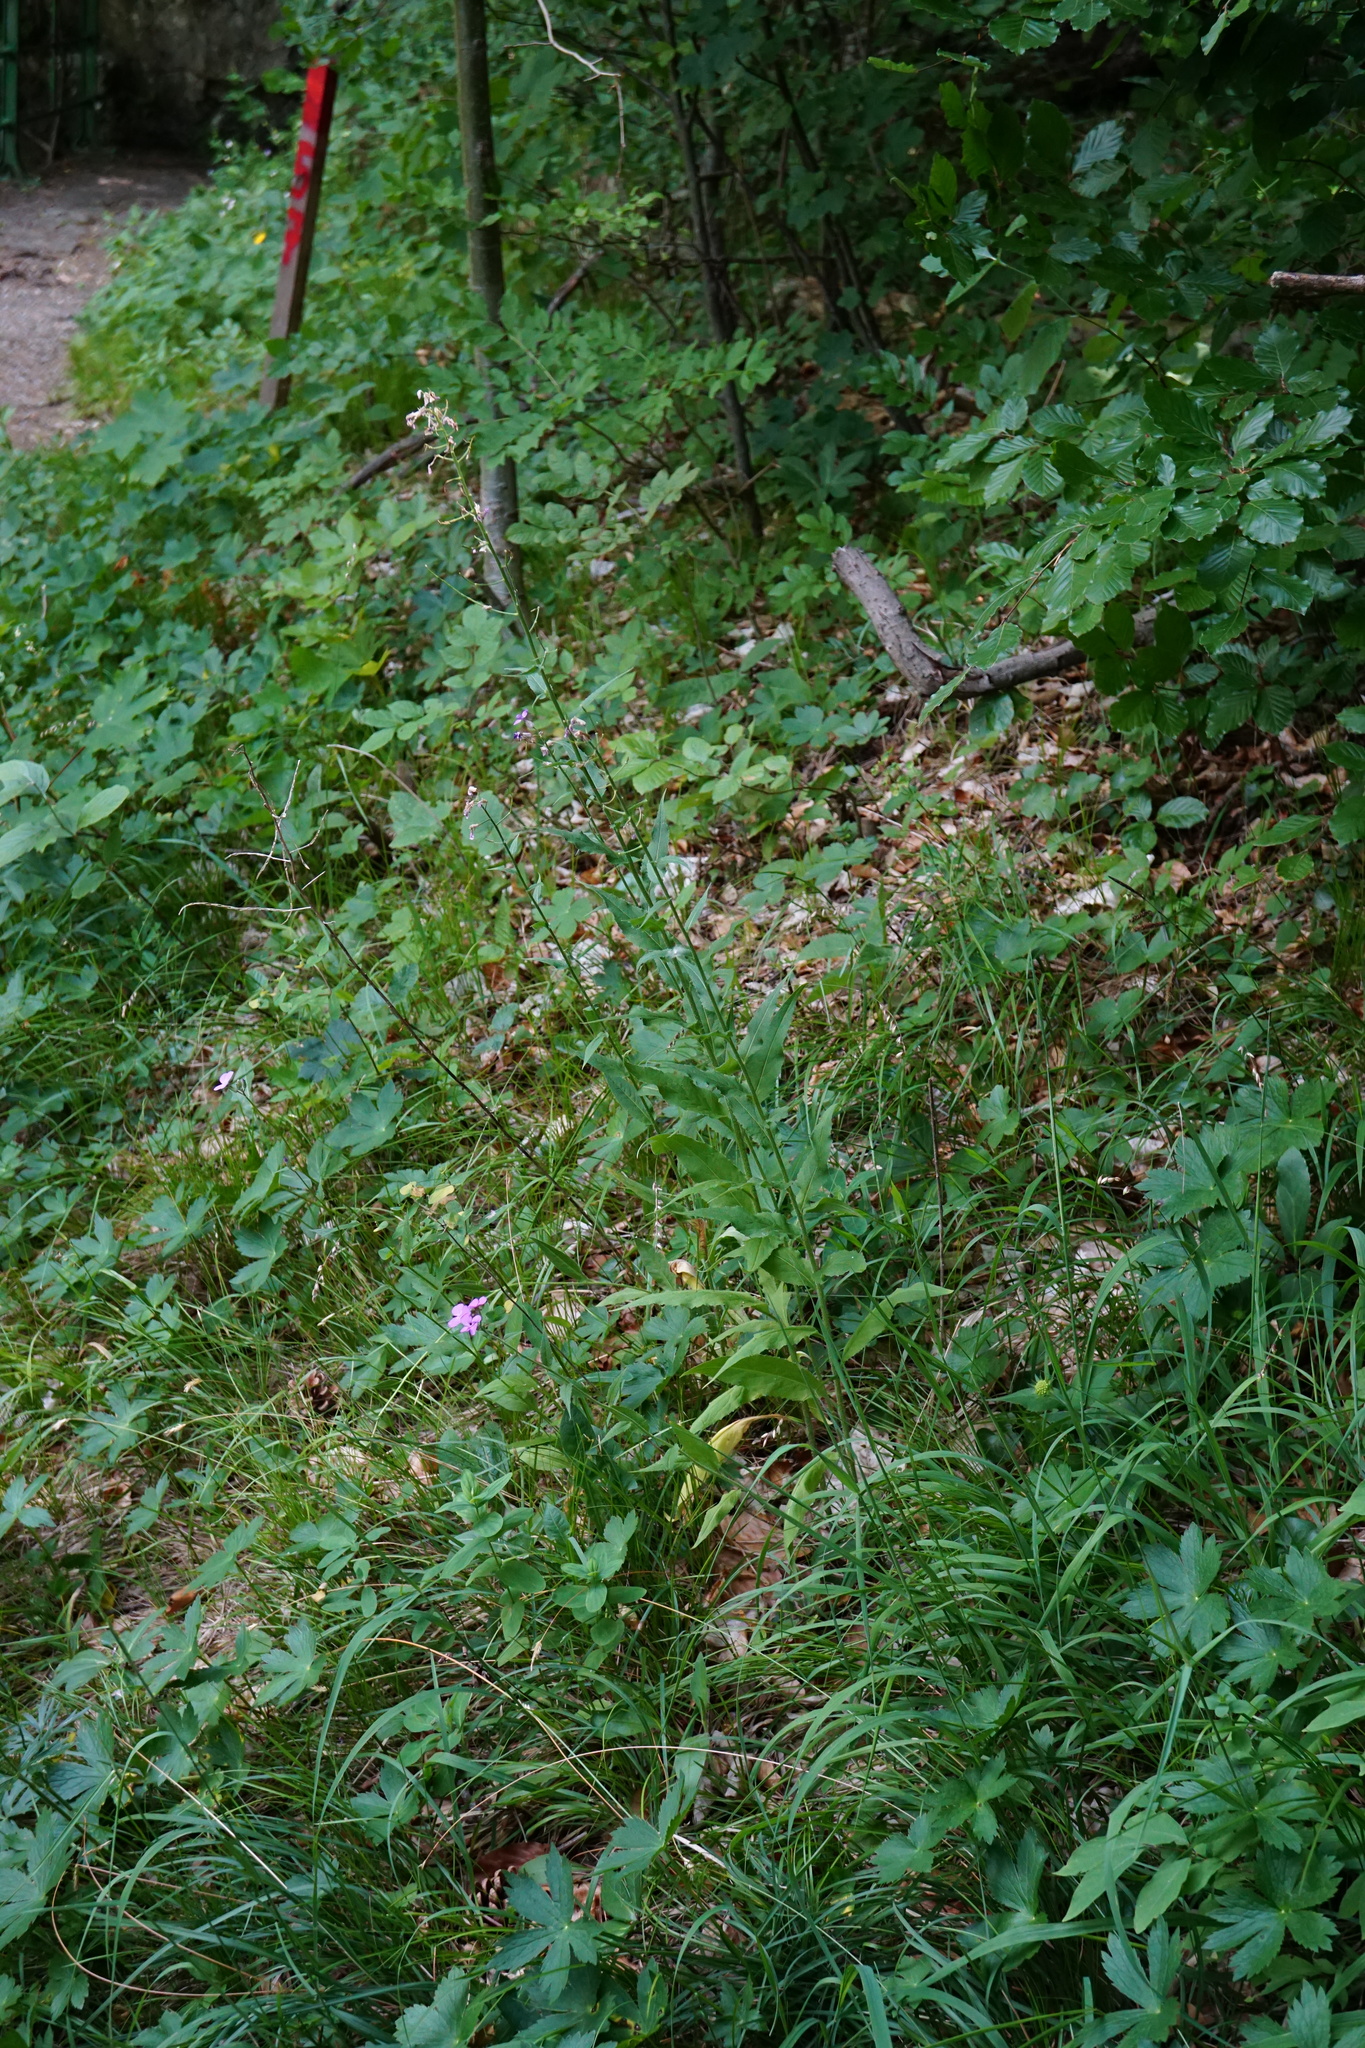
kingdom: Plantae
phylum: Tracheophyta
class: Magnoliopsida
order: Brassicales
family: Brassicaceae
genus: Hesperis
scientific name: Hesperis matronalis
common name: Dame's-violet
